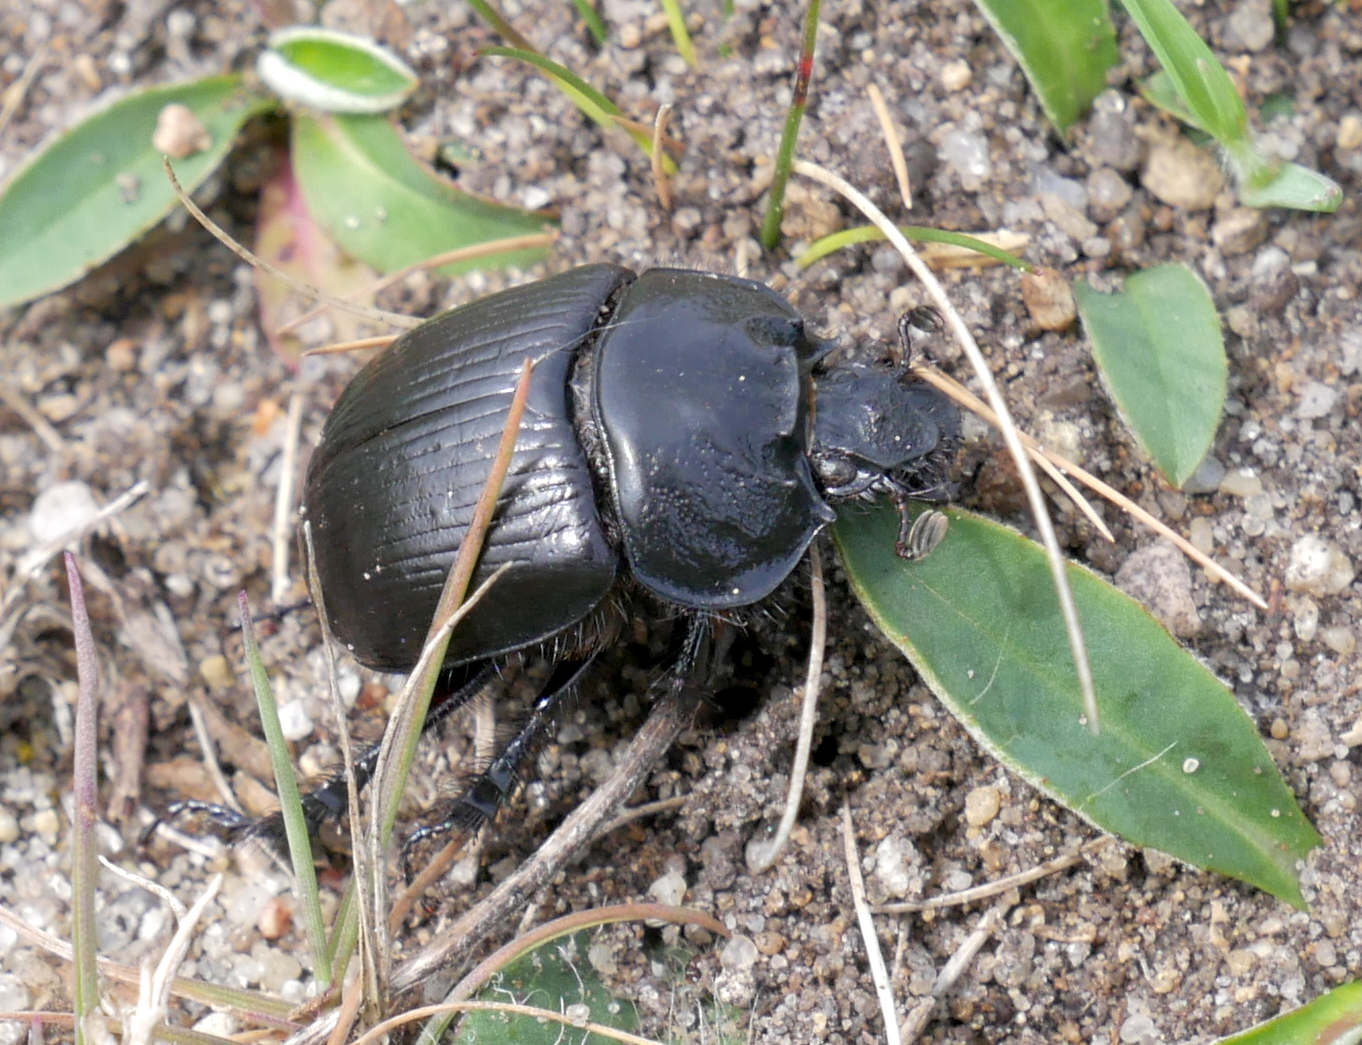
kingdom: Animalia
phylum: Arthropoda
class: Insecta
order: Coleoptera
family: Geotrupidae
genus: Typhaeus
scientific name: Typhaeus typhoeus
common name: Minotaur beetle
